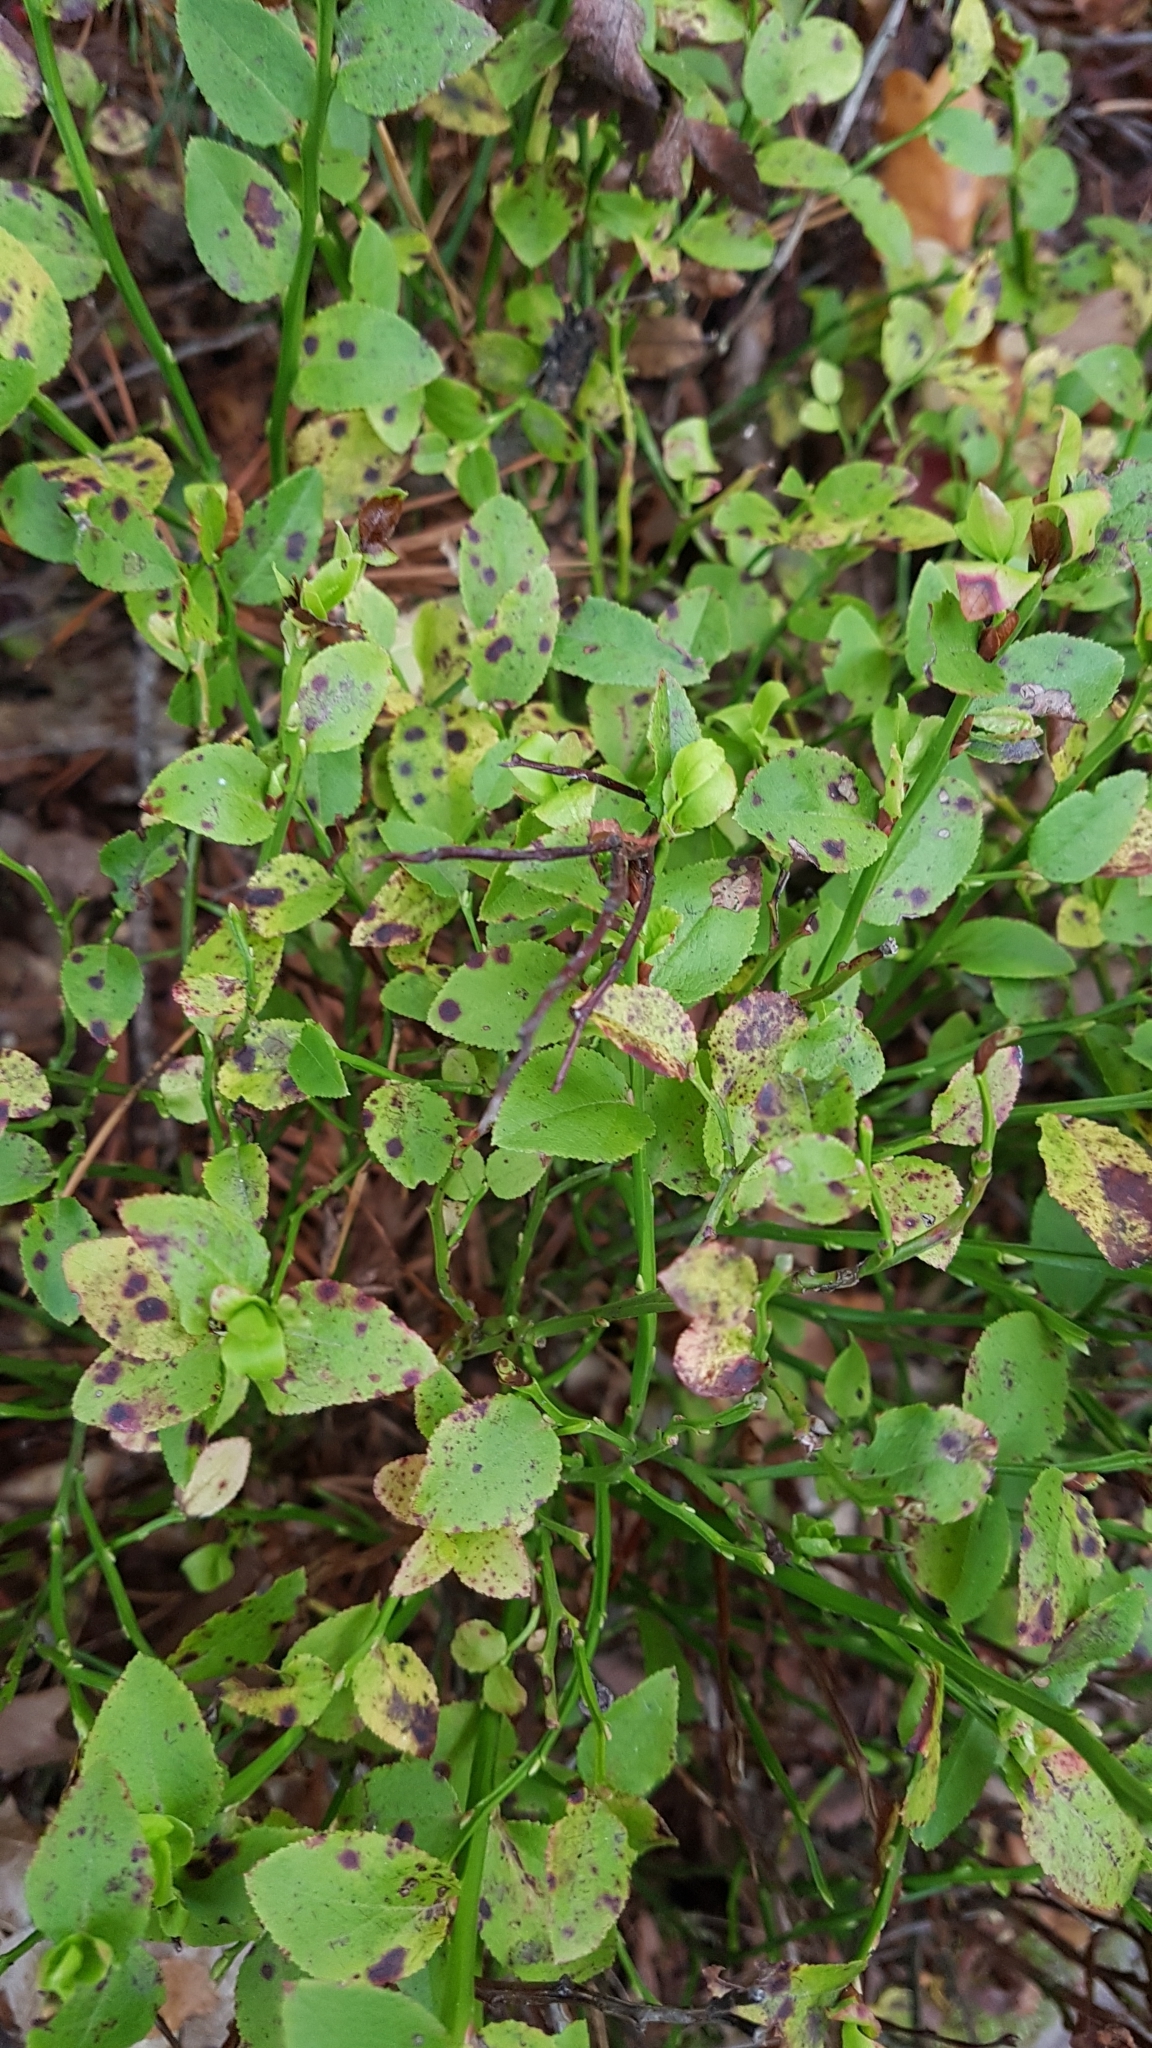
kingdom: Plantae
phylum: Tracheophyta
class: Magnoliopsida
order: Ericales
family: Ericaceae
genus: Vaccinium
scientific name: Vaccinium myrtillus
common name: Bilberry
